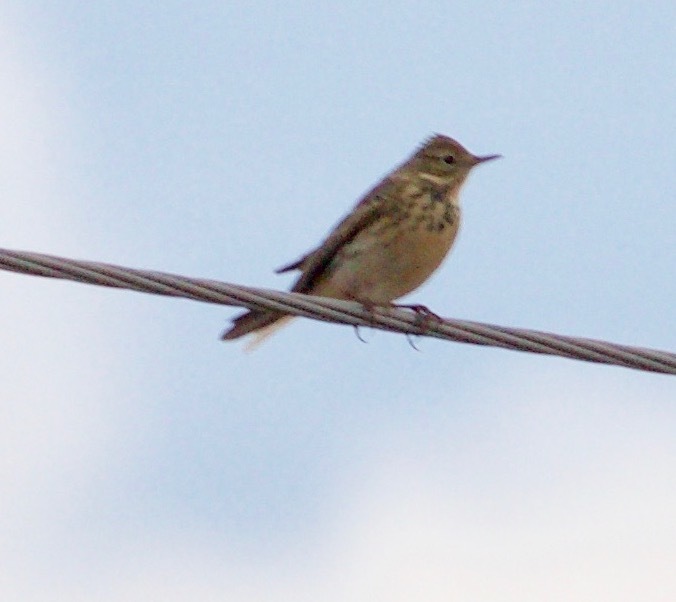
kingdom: Animalia
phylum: Chordata
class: Aves
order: Passeriformes
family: Motacillidae
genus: Anthus
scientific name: Anthus pratensis
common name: Meadow pipit
